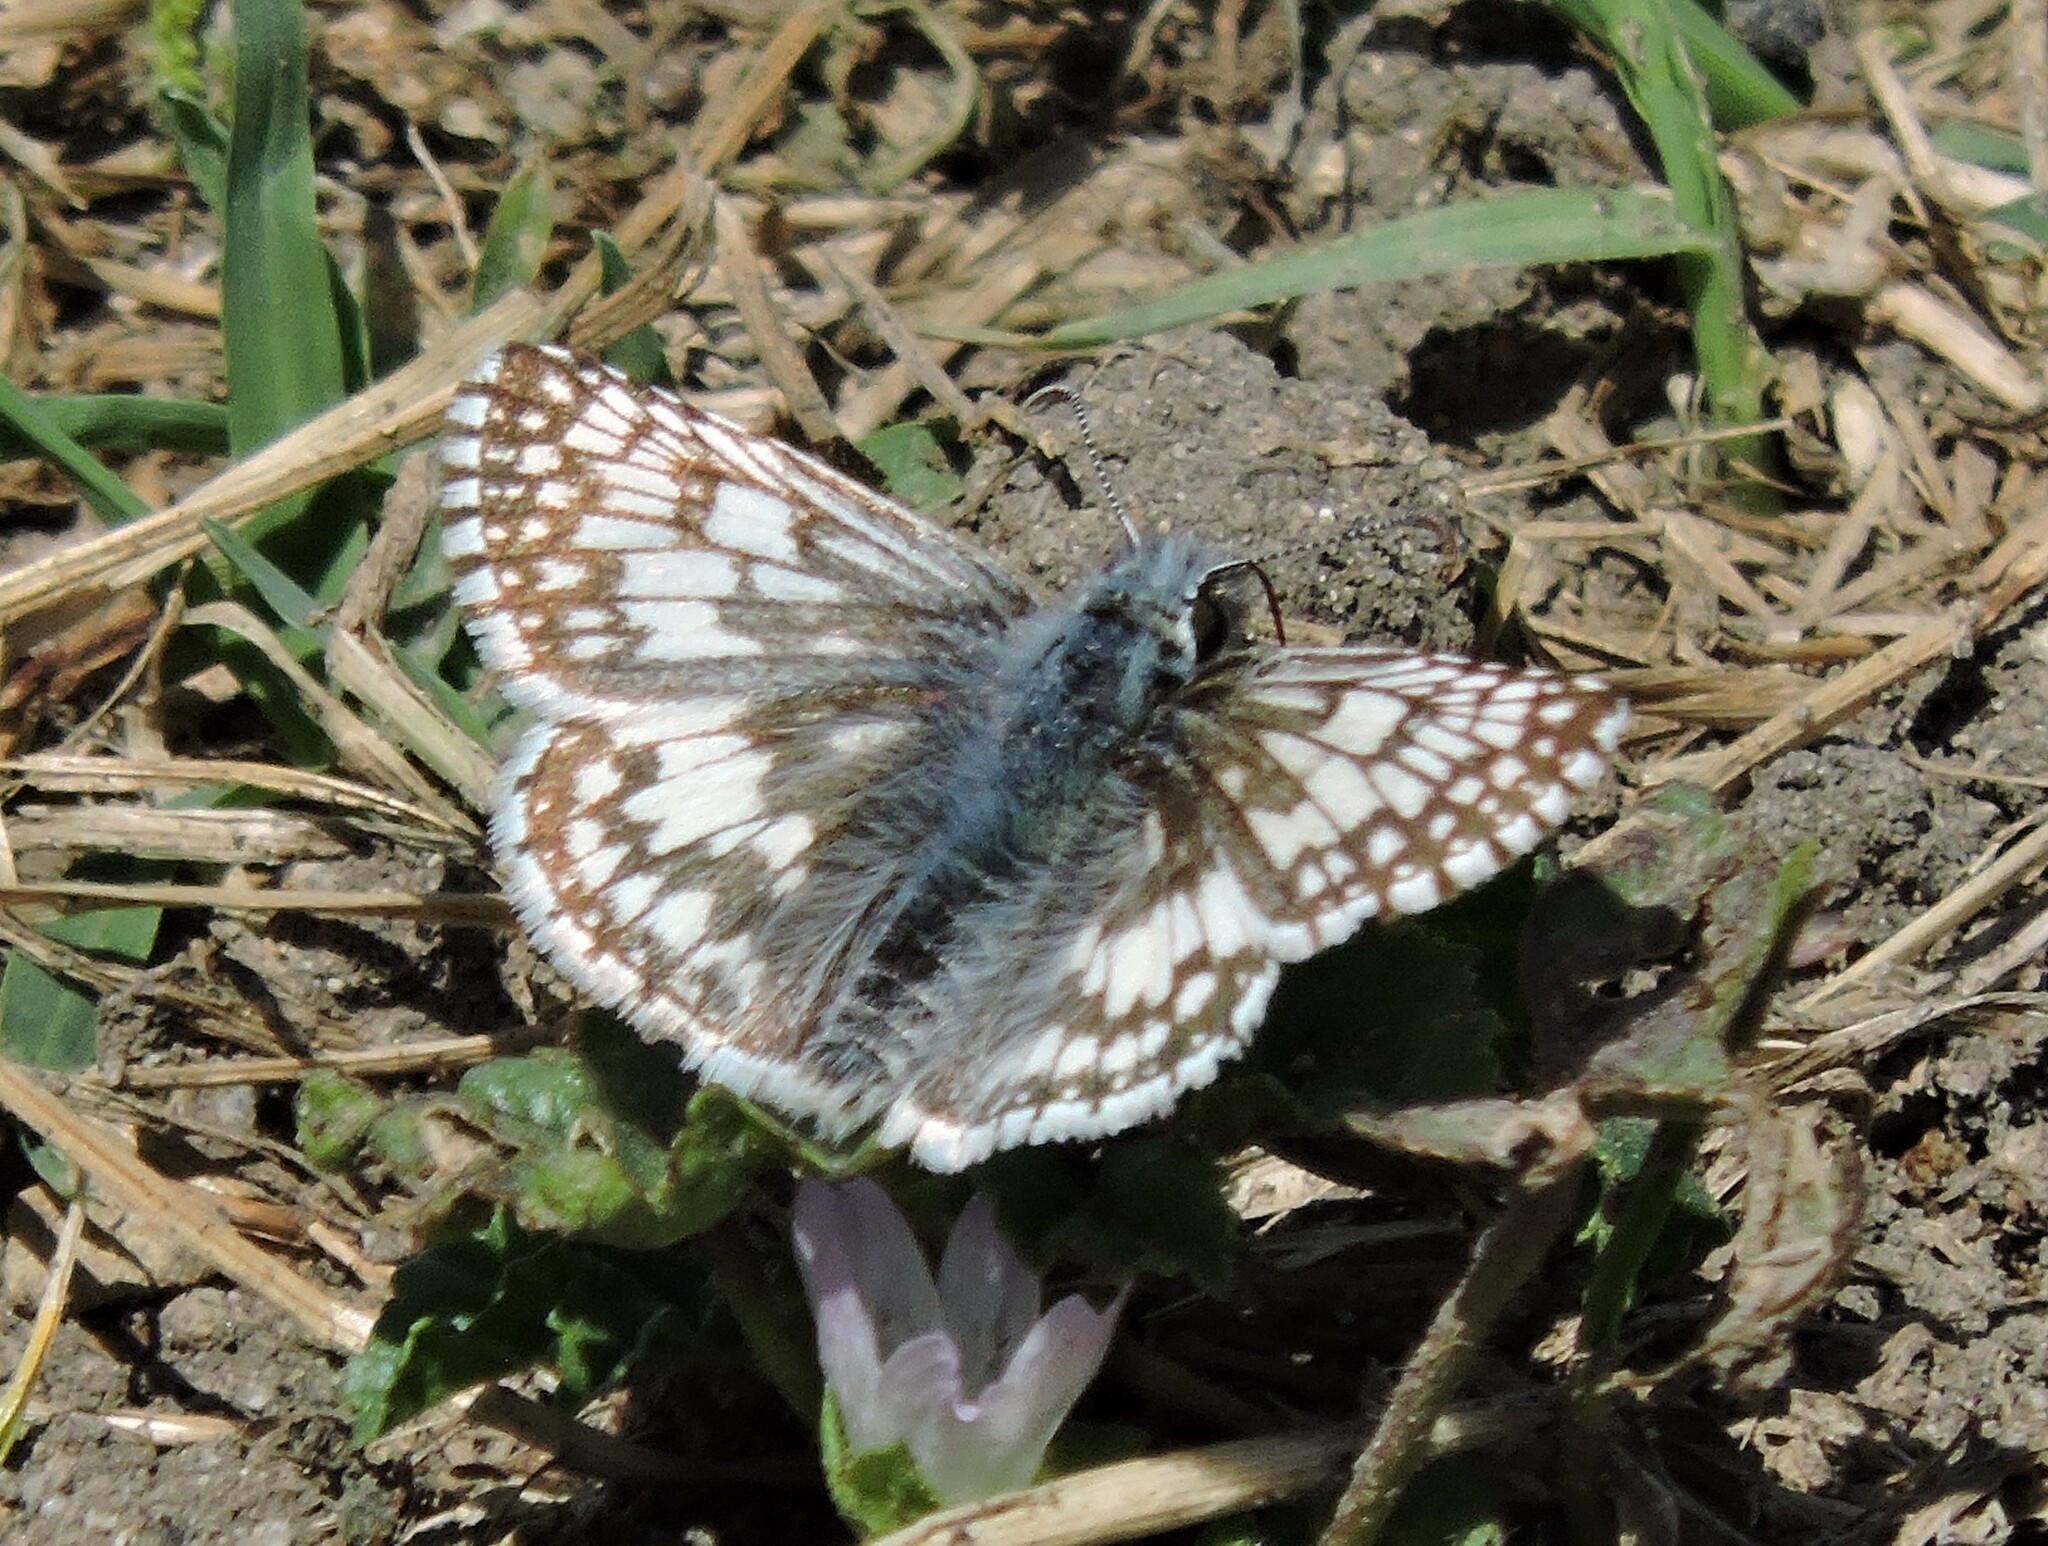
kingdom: Animalia
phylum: Arthropoda
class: Insecta
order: Lepidoptera
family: Hesperiidae
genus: Burnsius
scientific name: Burnsius communis
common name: Common checkered-skipper
